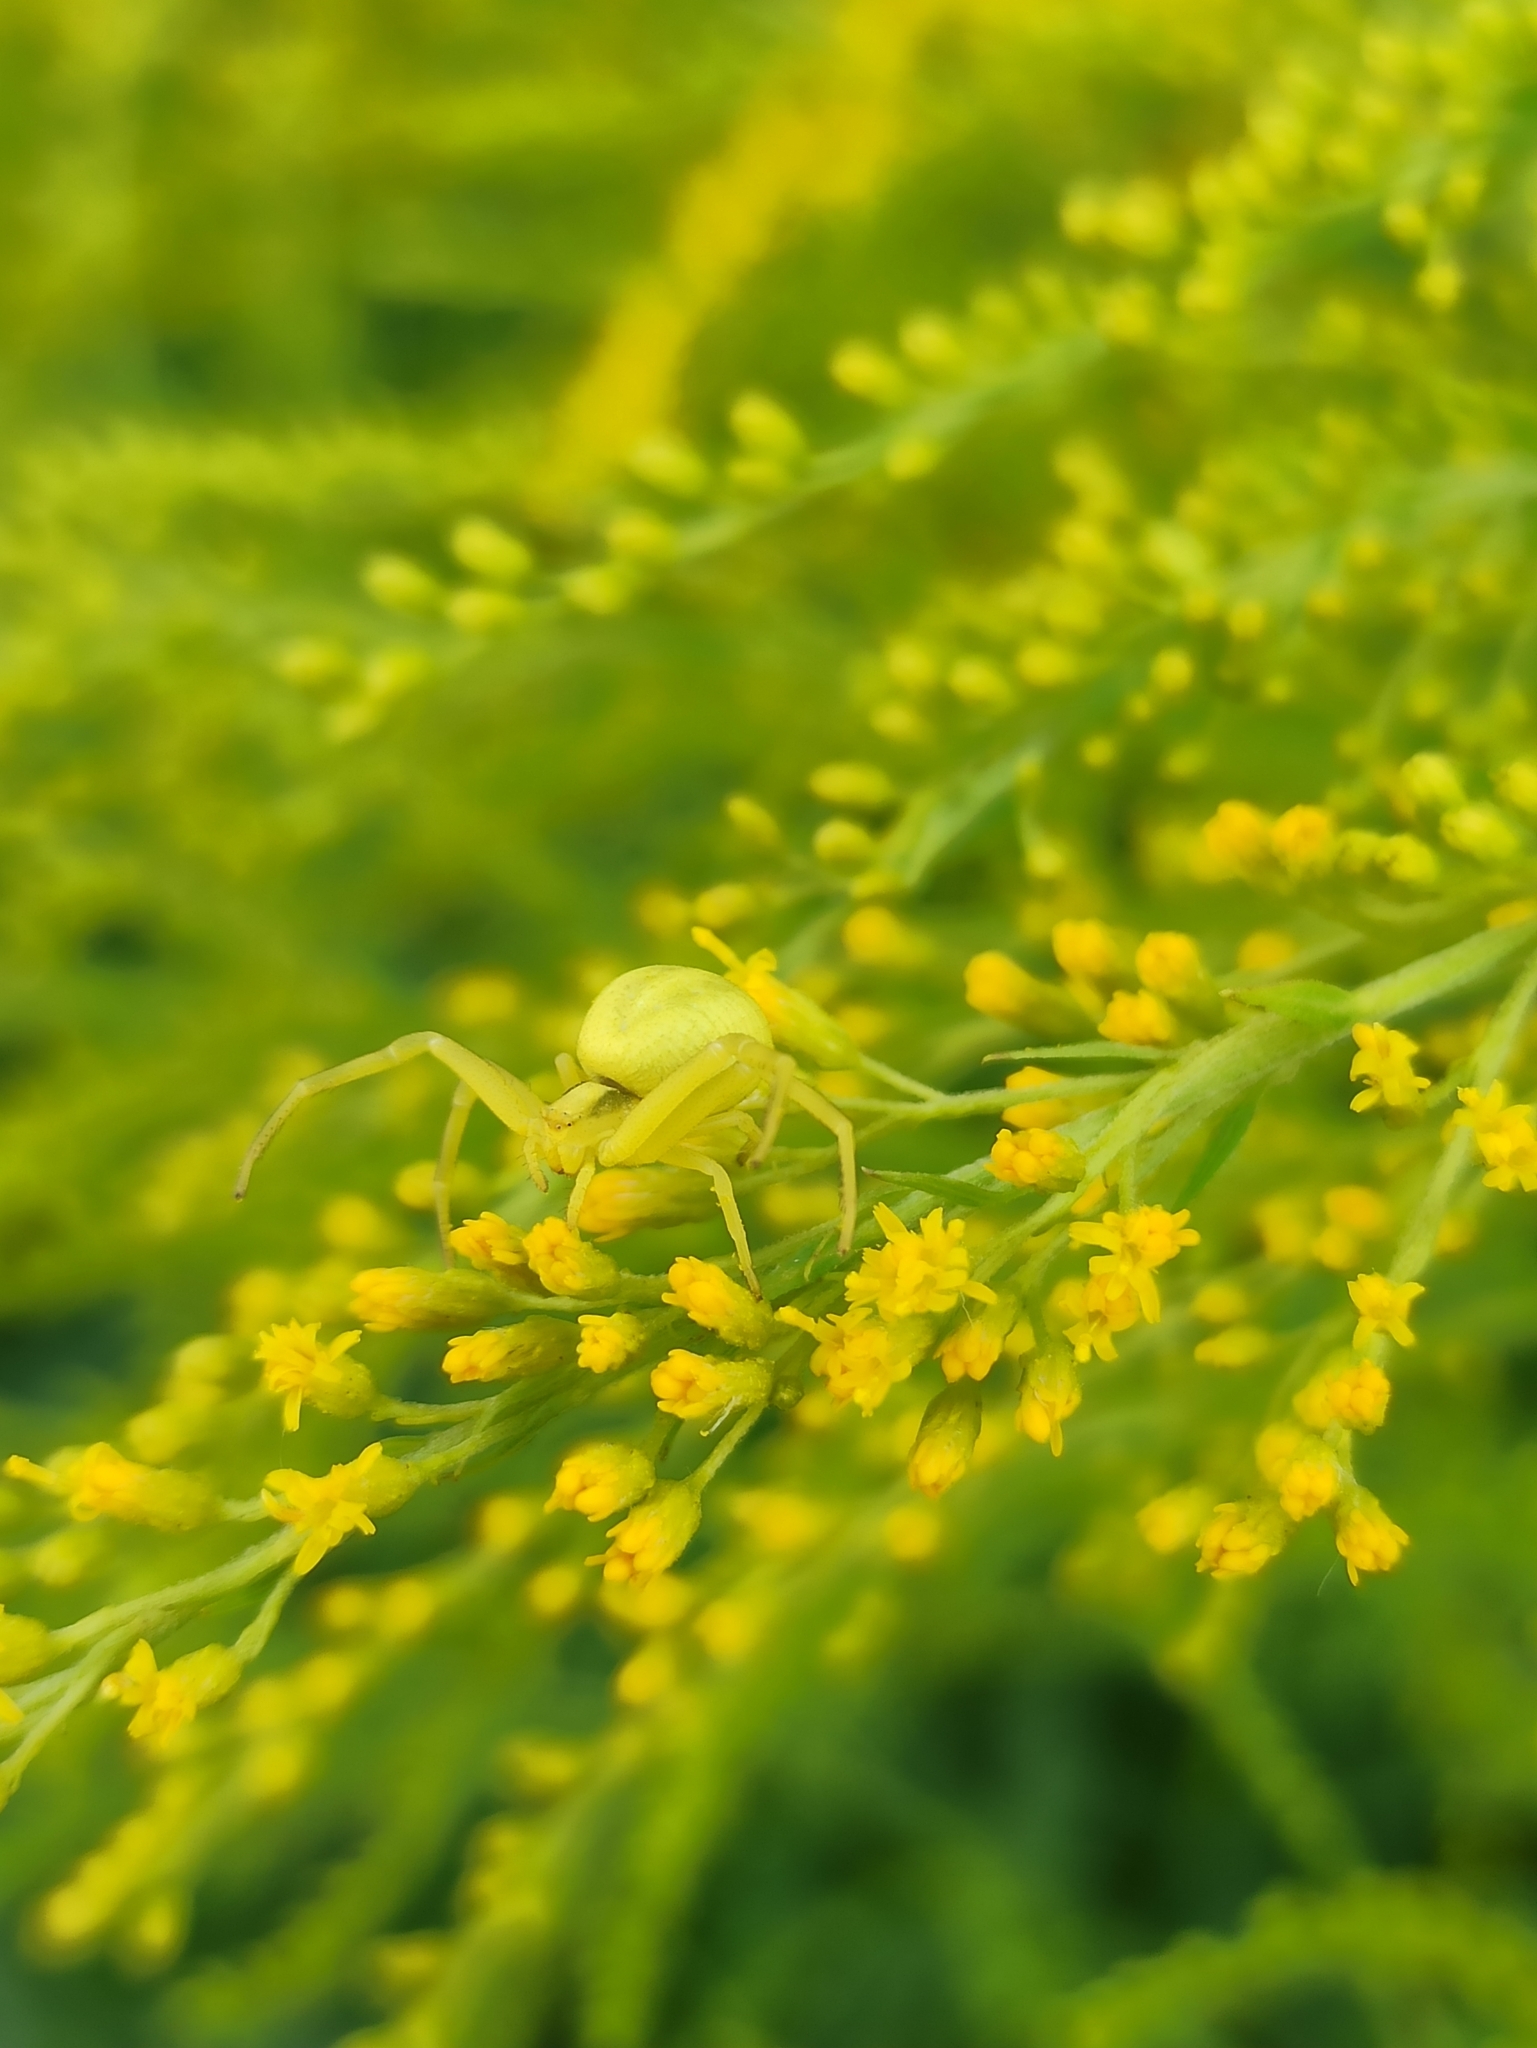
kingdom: Animalia
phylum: Arthropoda
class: Arachnida
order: Araneae
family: Thomisidae
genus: Misumena
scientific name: Misumena vatia
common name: Goldenrod crab spider
